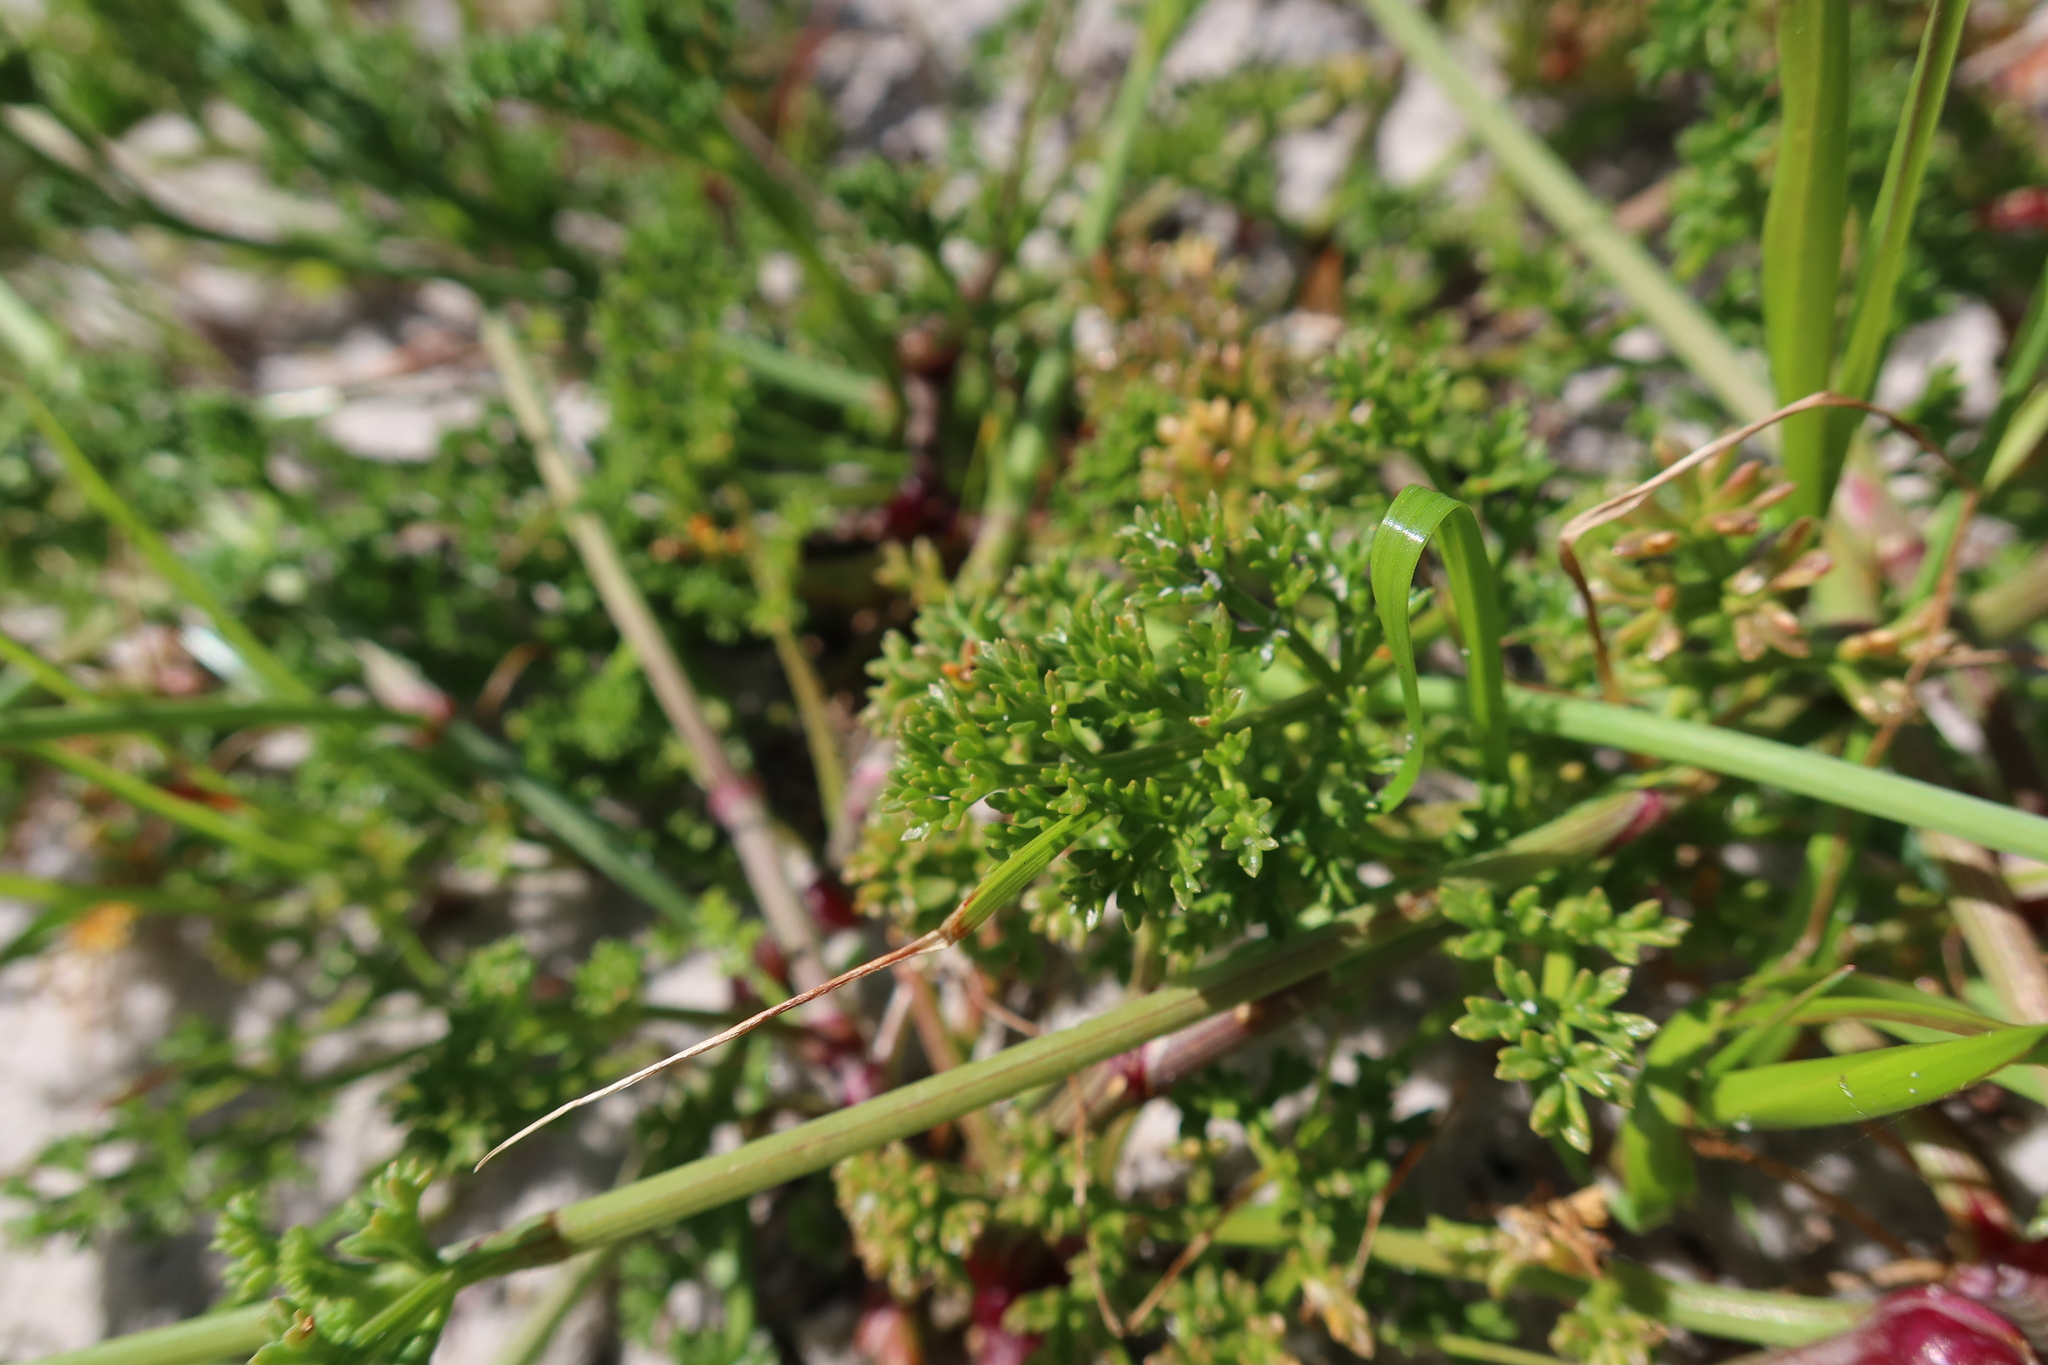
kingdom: Plantae
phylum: Tracheophyta
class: Magnoliopsida
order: Apiales
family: Apiaceae
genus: Dasispermum
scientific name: Dasispermum suffruticosum
